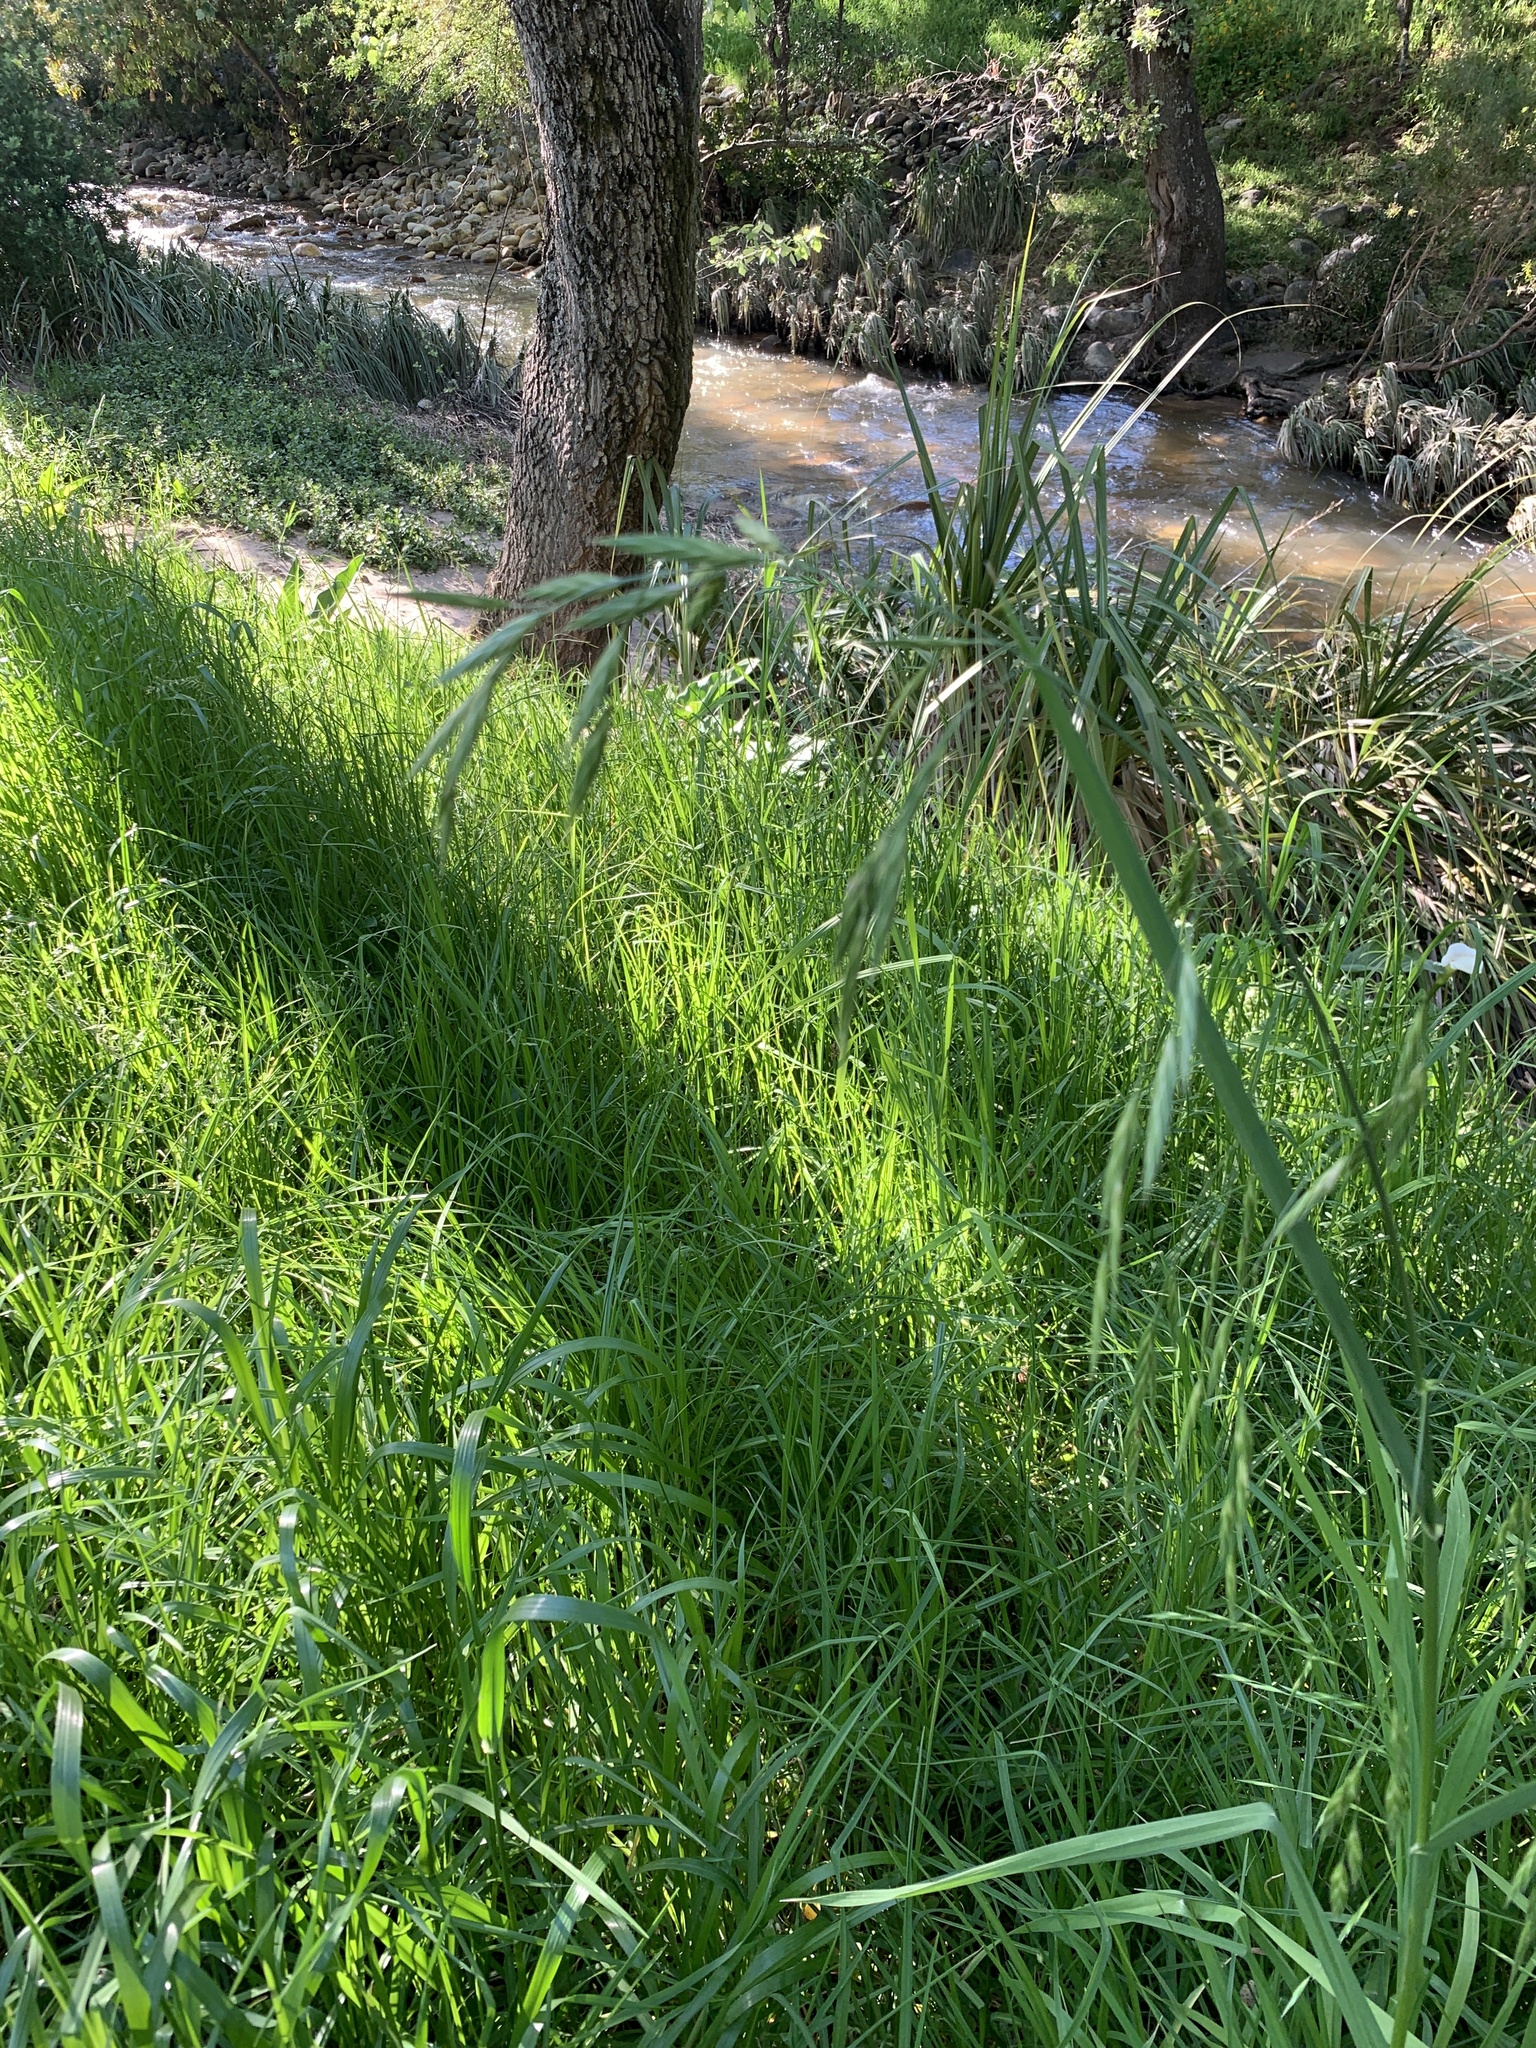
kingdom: Plantae
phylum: Tracheophyta
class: Liliopsida
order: Poales
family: Poaceae
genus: Bromus
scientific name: Bromus catharticus
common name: Rescuegrass
